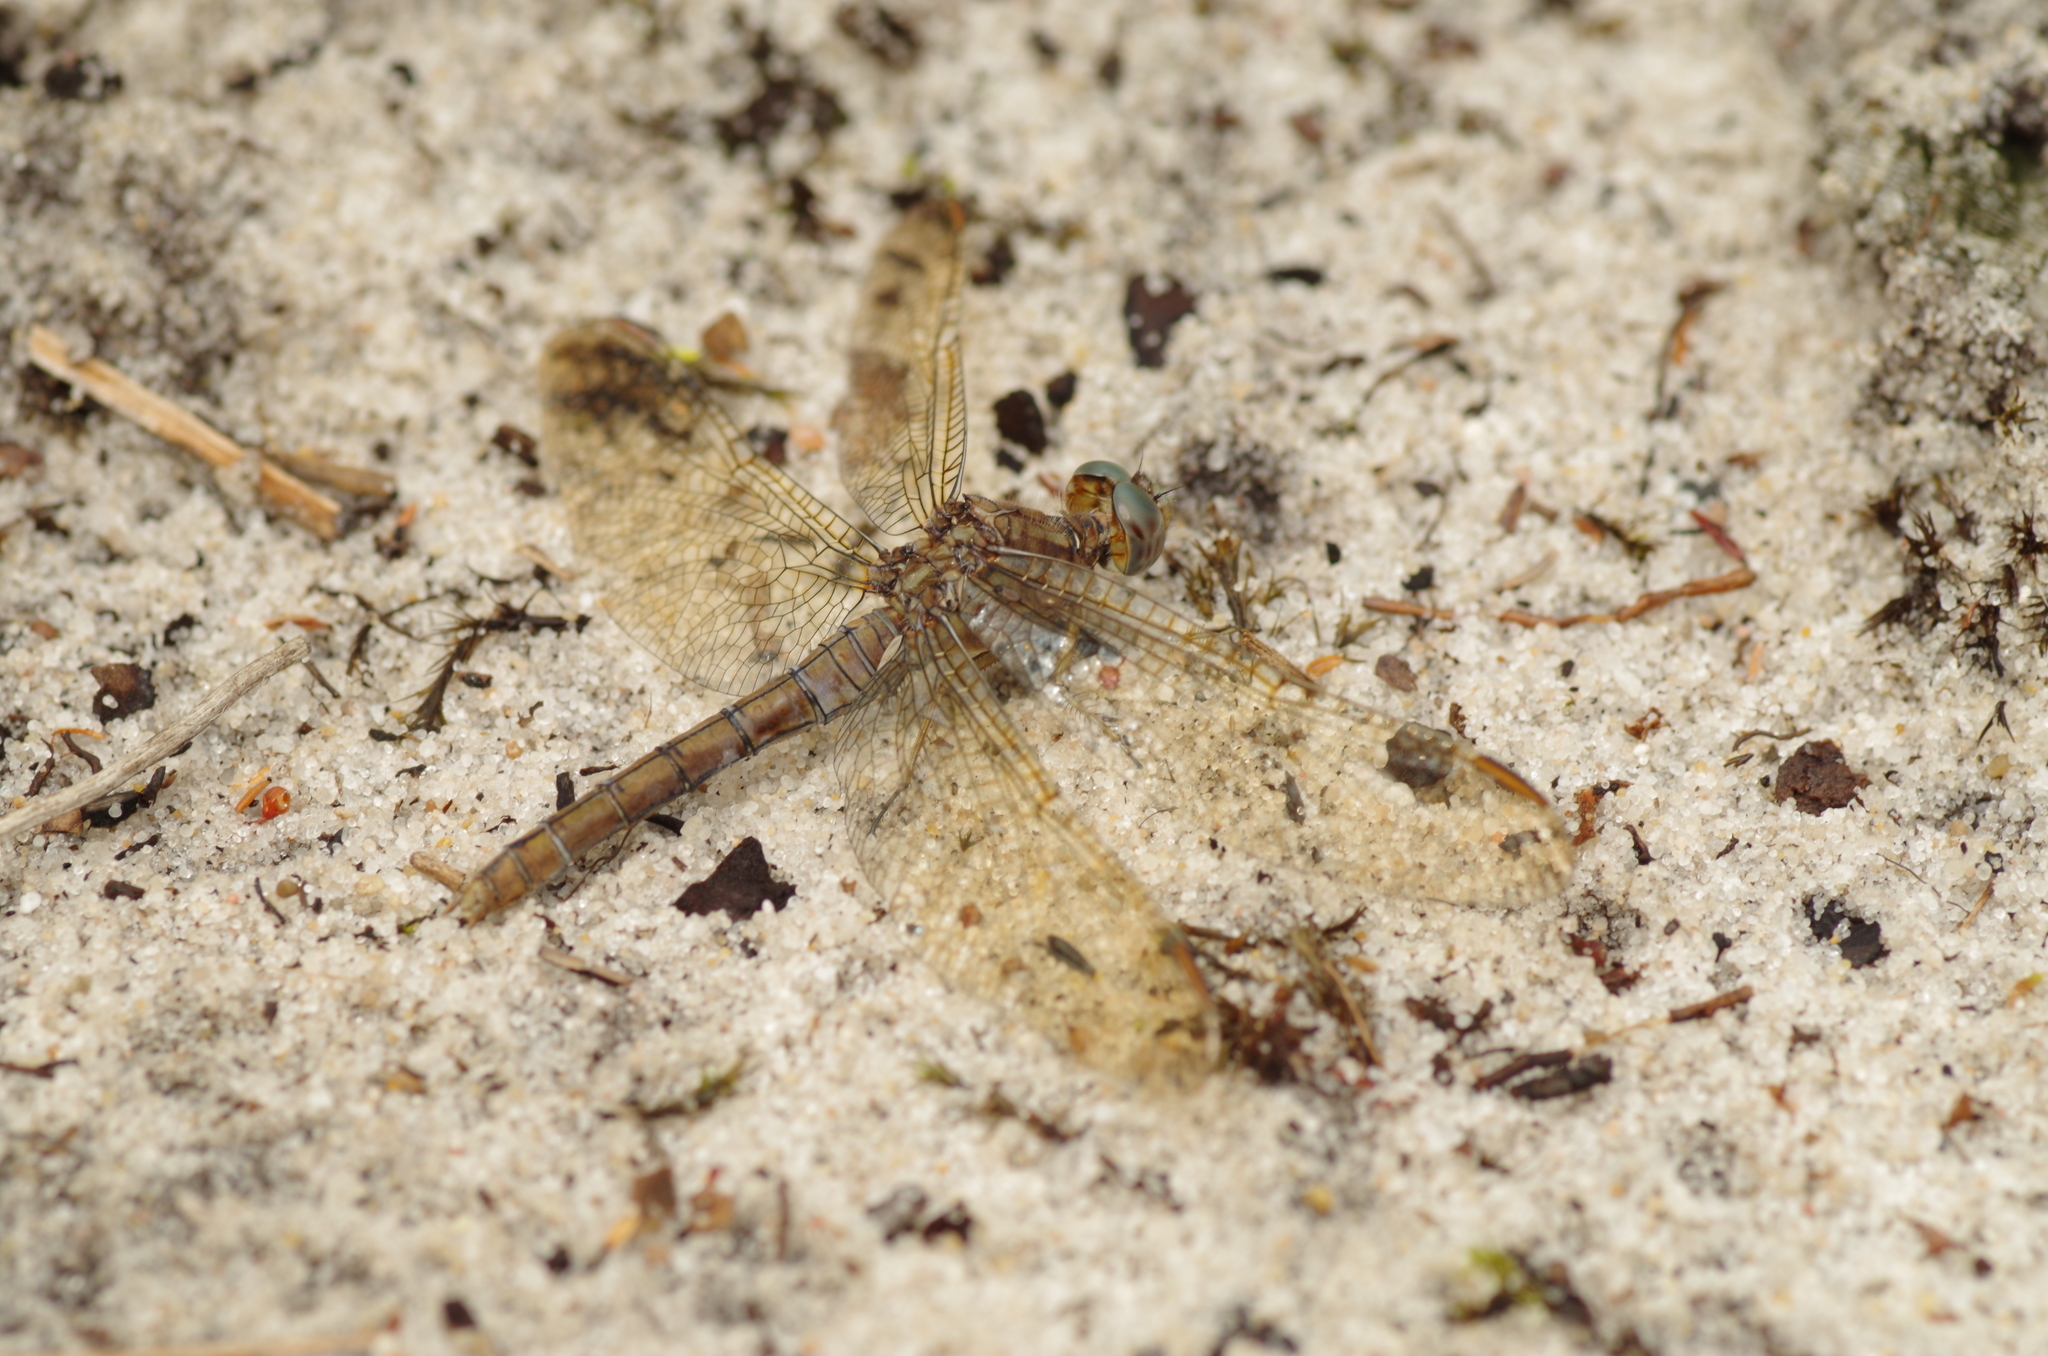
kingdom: Animalia
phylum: Arthropoda
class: Insecta
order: Odonata
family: Libellulidae
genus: Orthetrum
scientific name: Orthetrum coerulescens
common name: Keeled skimmer
